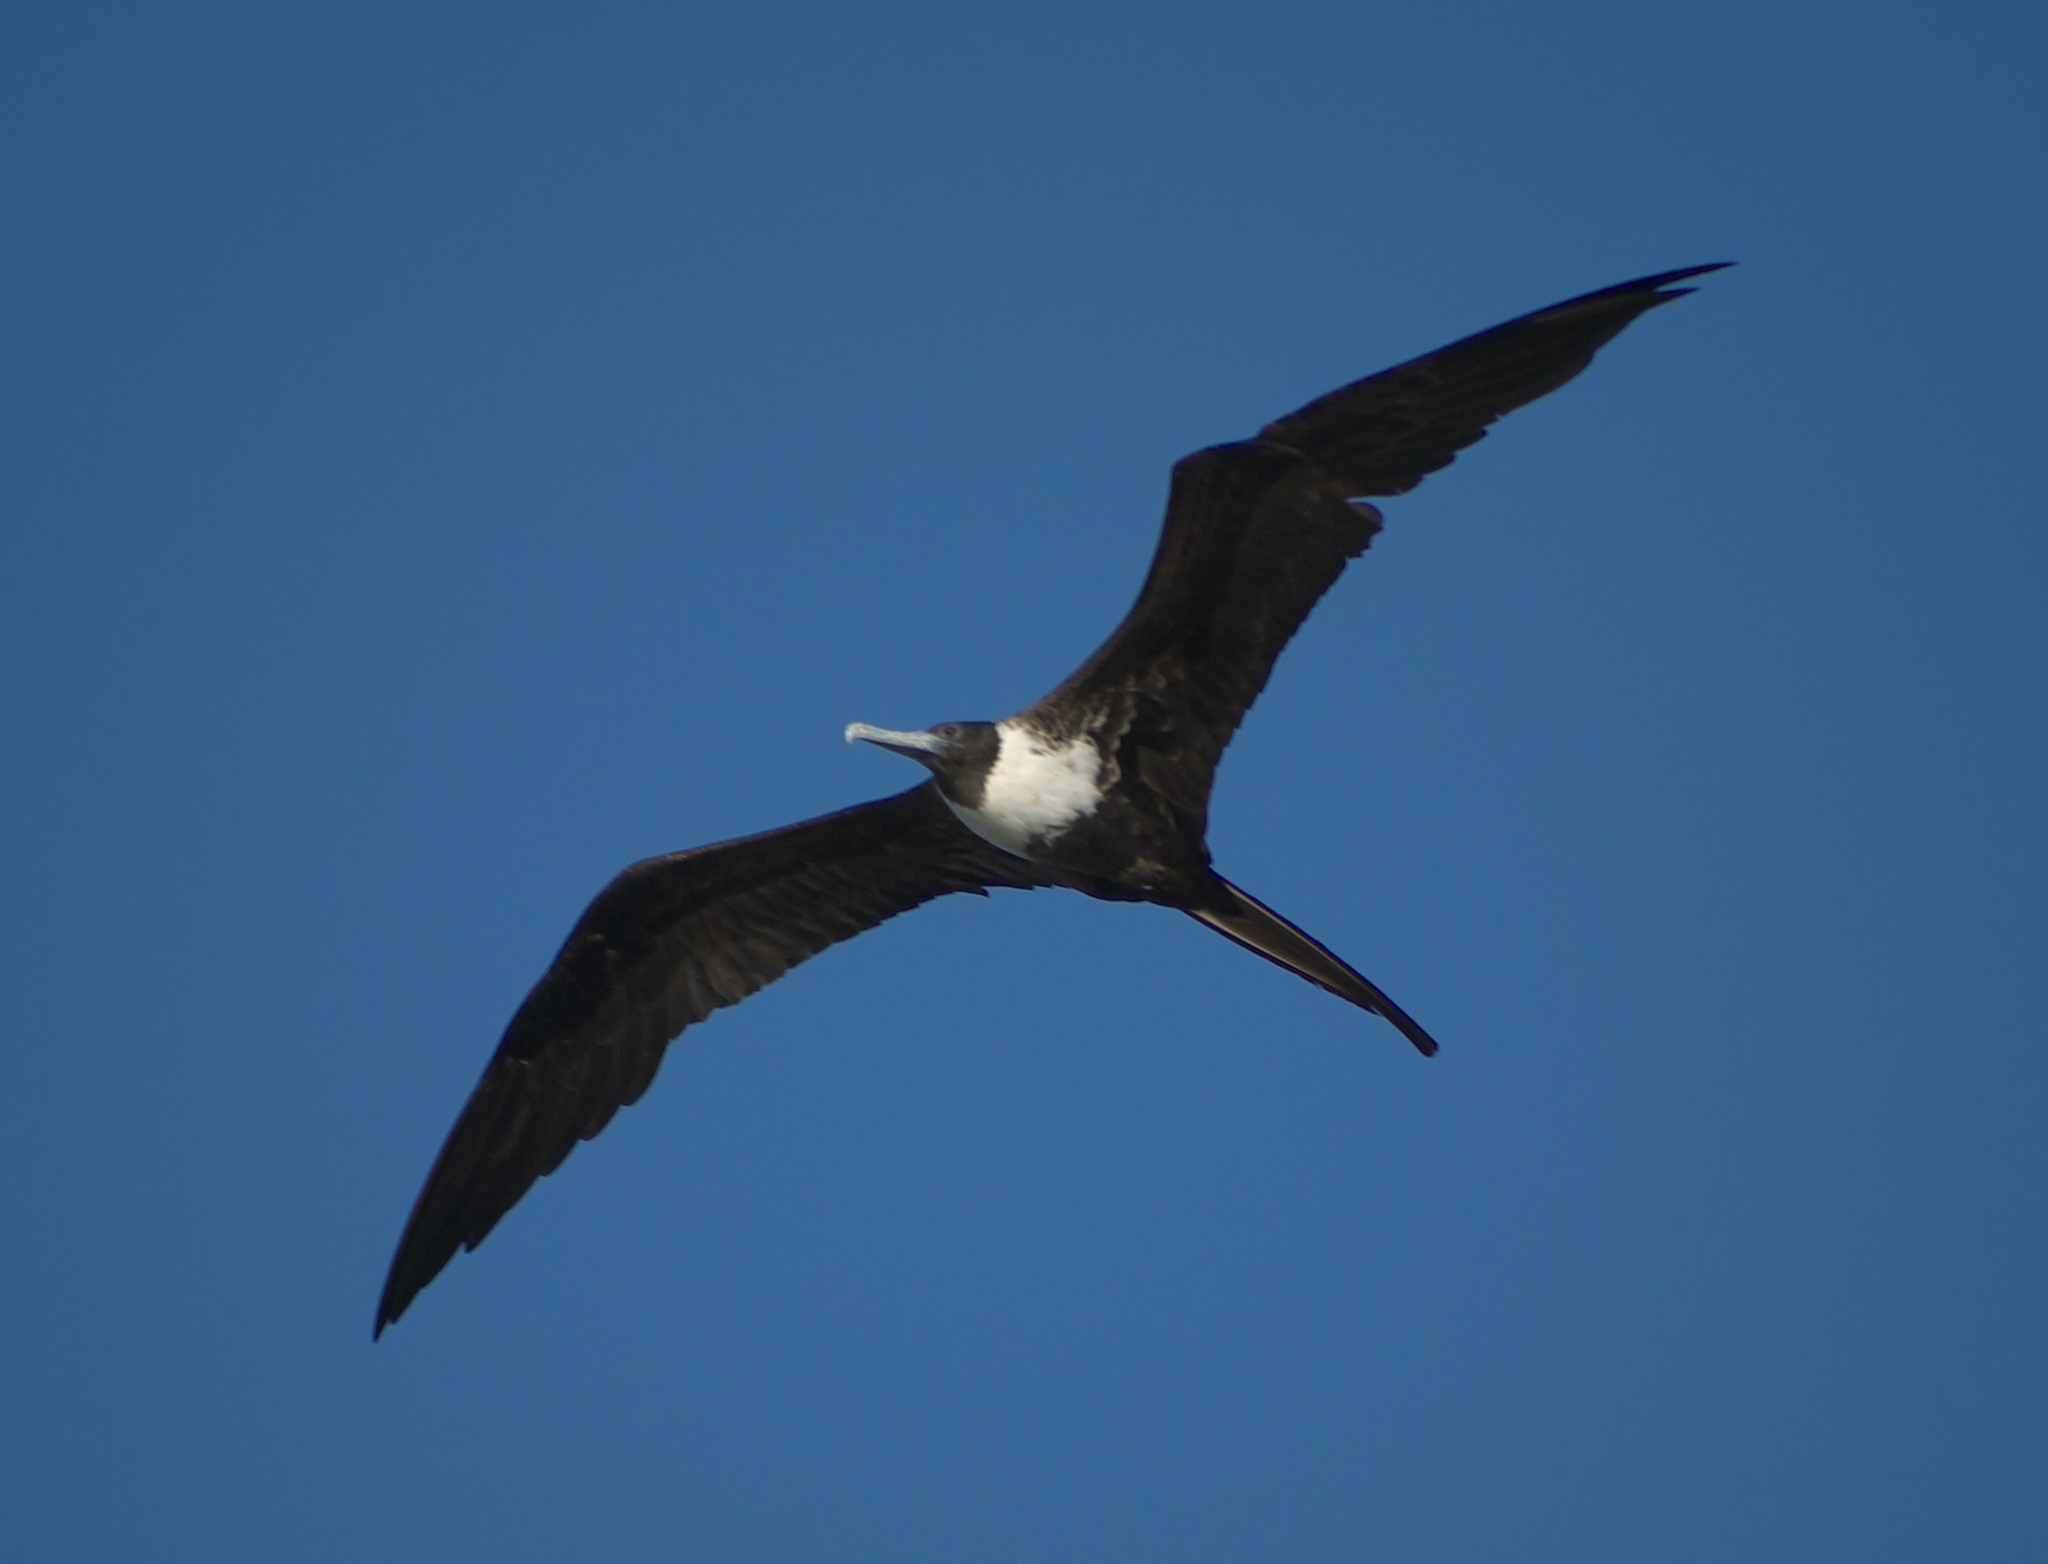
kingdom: Animalia
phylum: Chordata
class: Aves
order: Suliformes
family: Fregatidae
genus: Fregata
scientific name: Fregata magnificens
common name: Magnificent frigatebird
